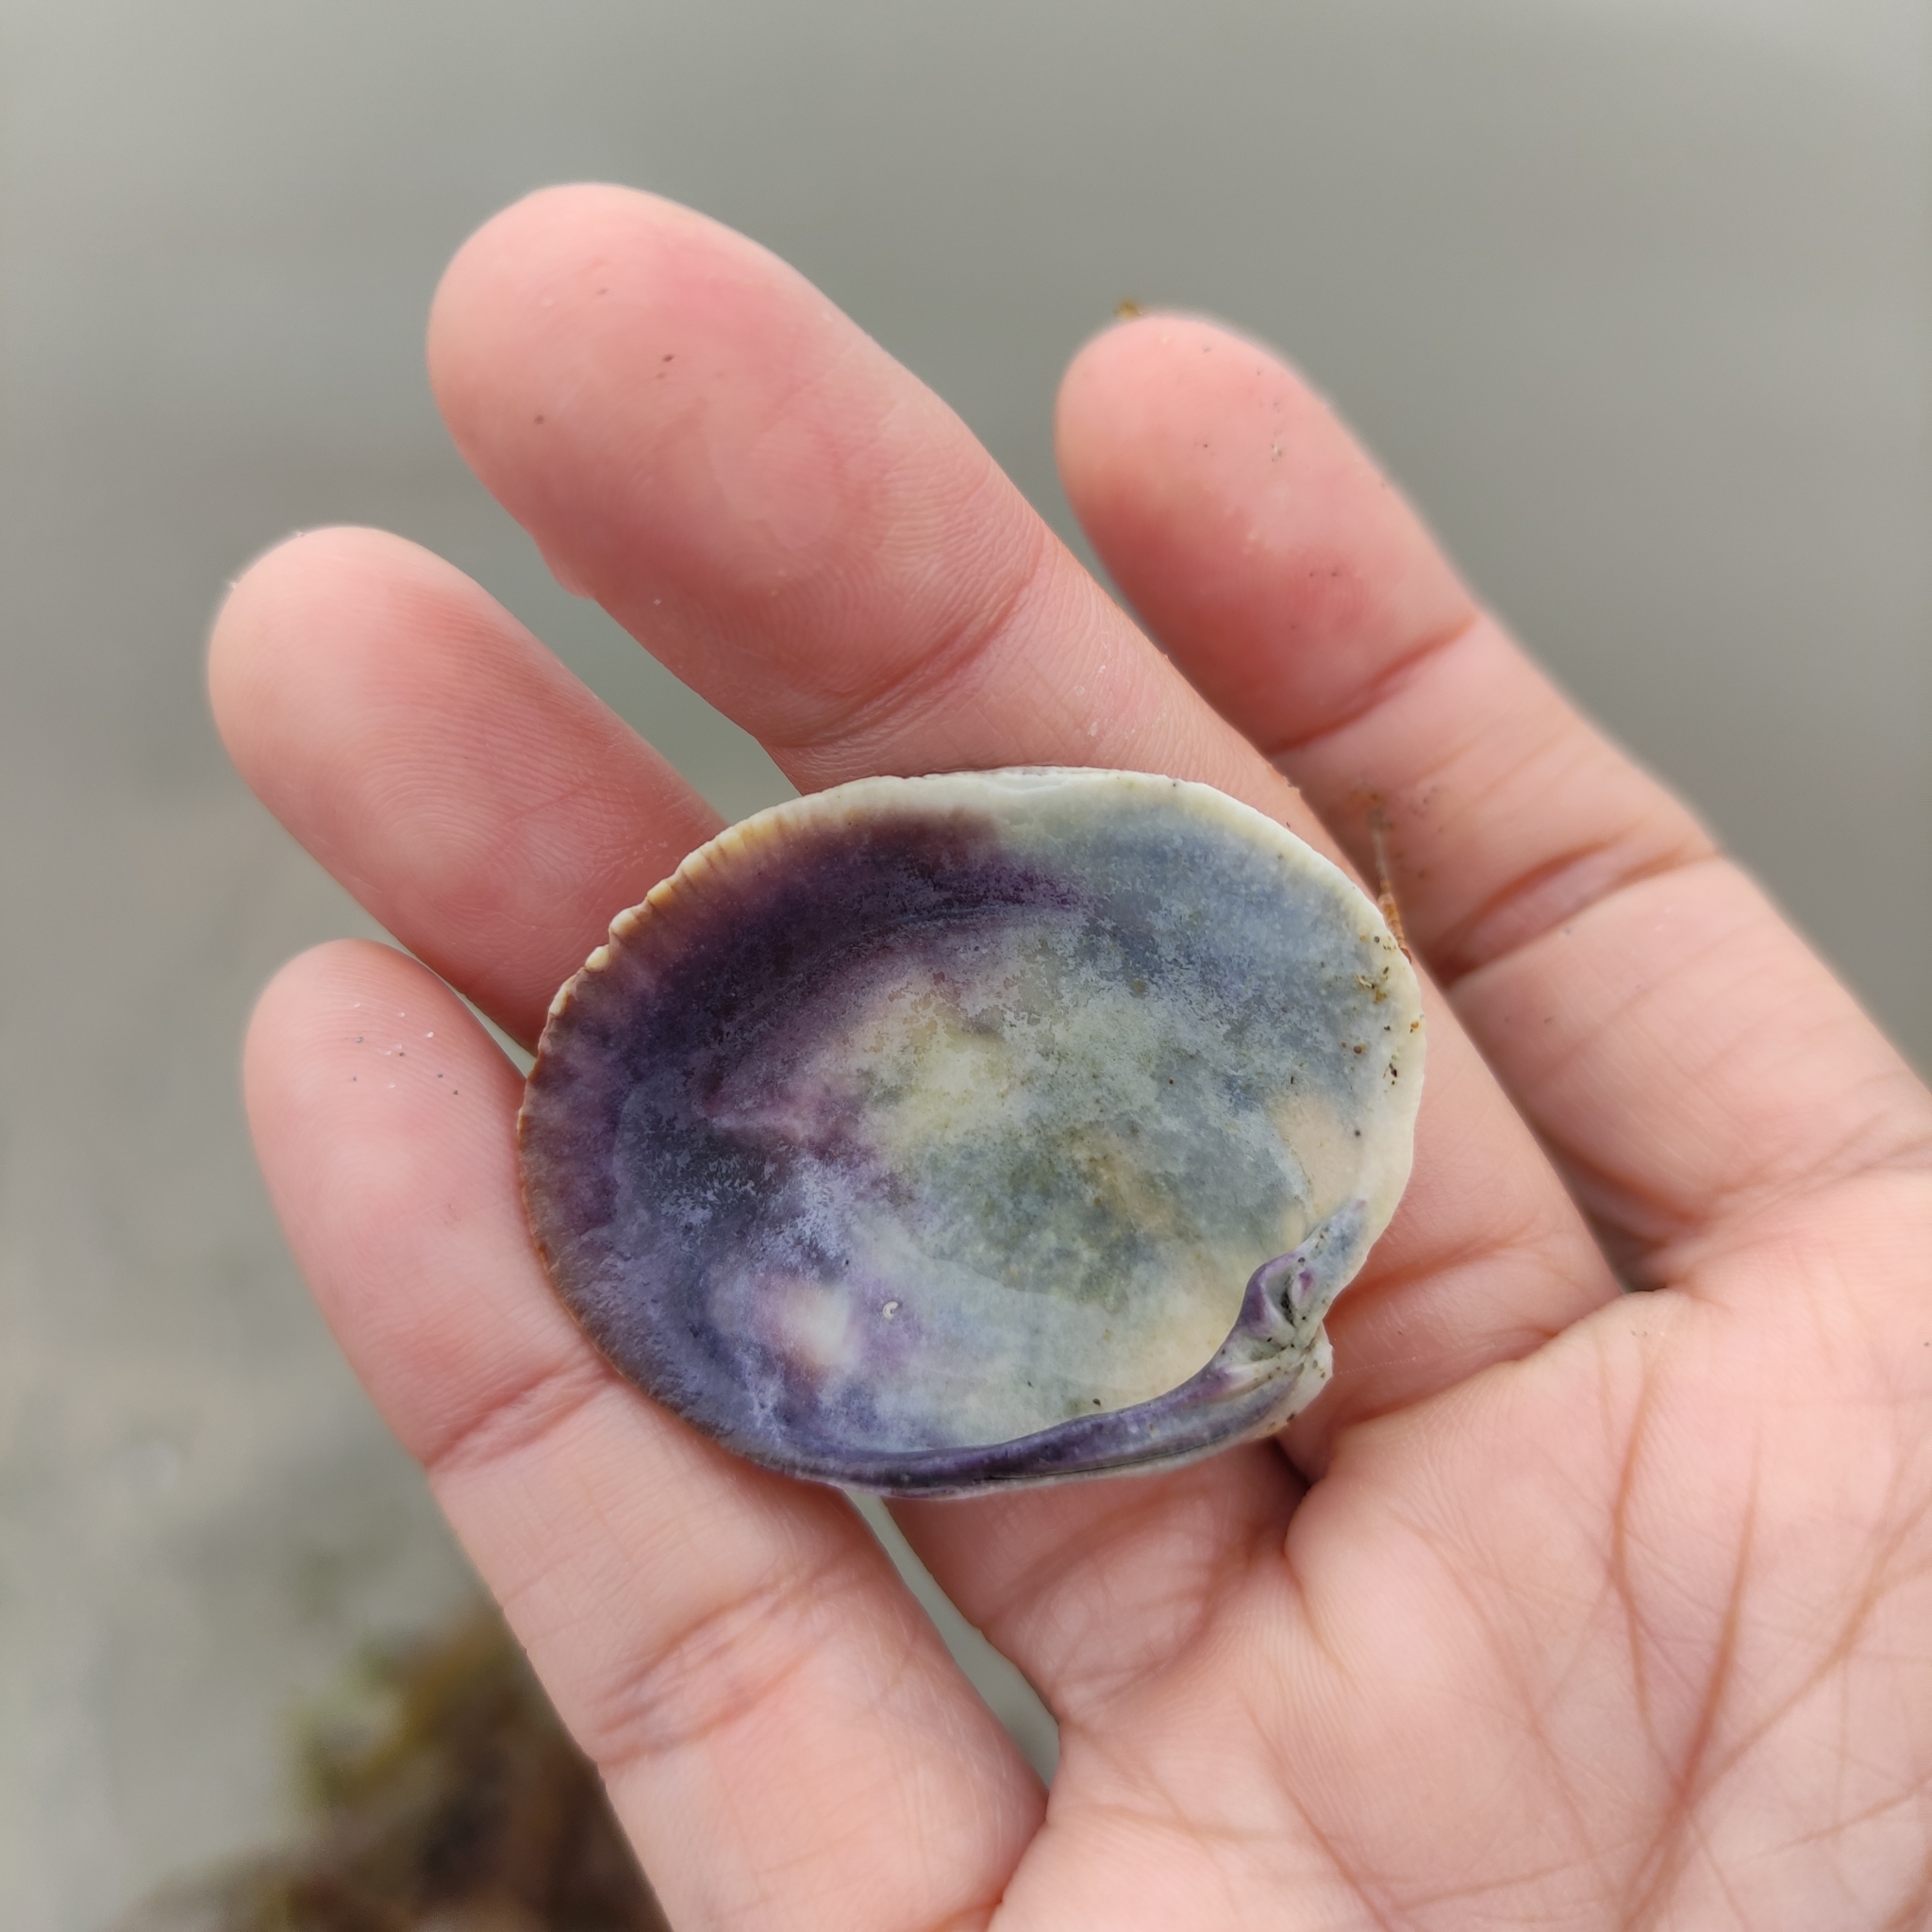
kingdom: Animalia
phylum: Mollusca
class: Bivalvia
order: Venerida
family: Veneridae
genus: Austrovenus
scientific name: Austrovenus stutchburyi
